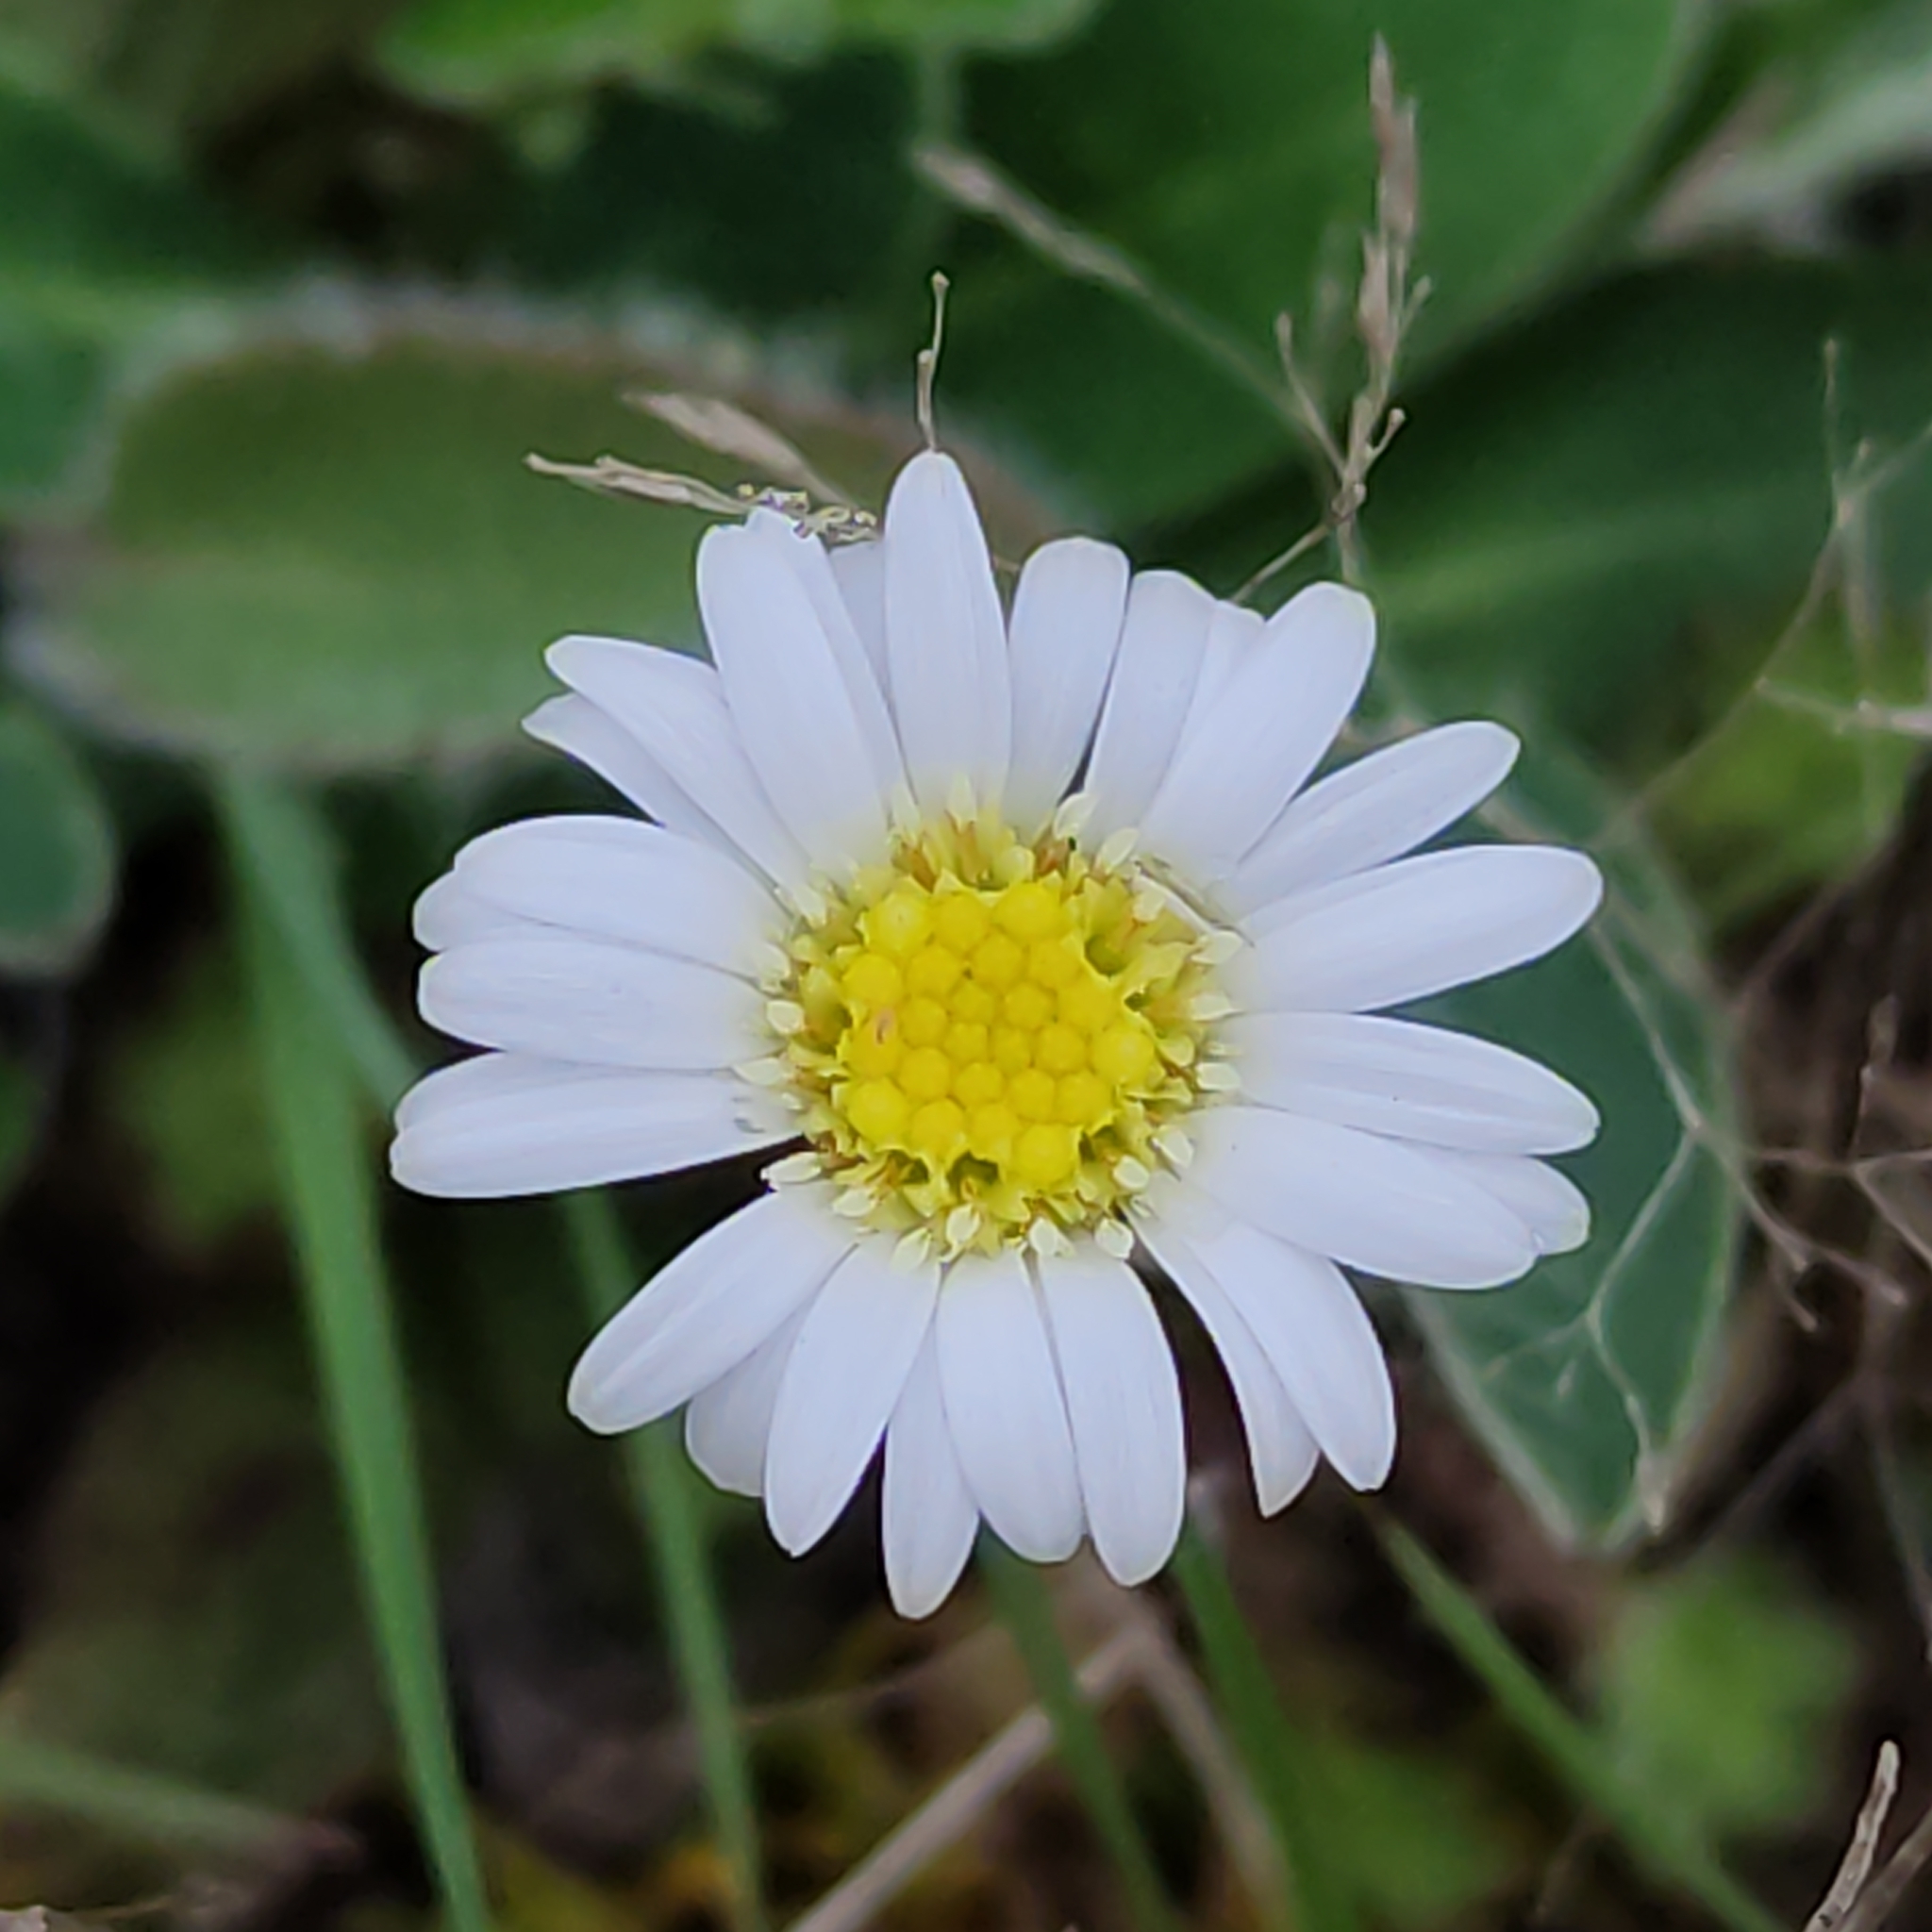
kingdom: Plantae
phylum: Tracheophyta
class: Magnoliopsida
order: Asterales
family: Asteraceae
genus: Brachyscome
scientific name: Brachyscome sinclairii
